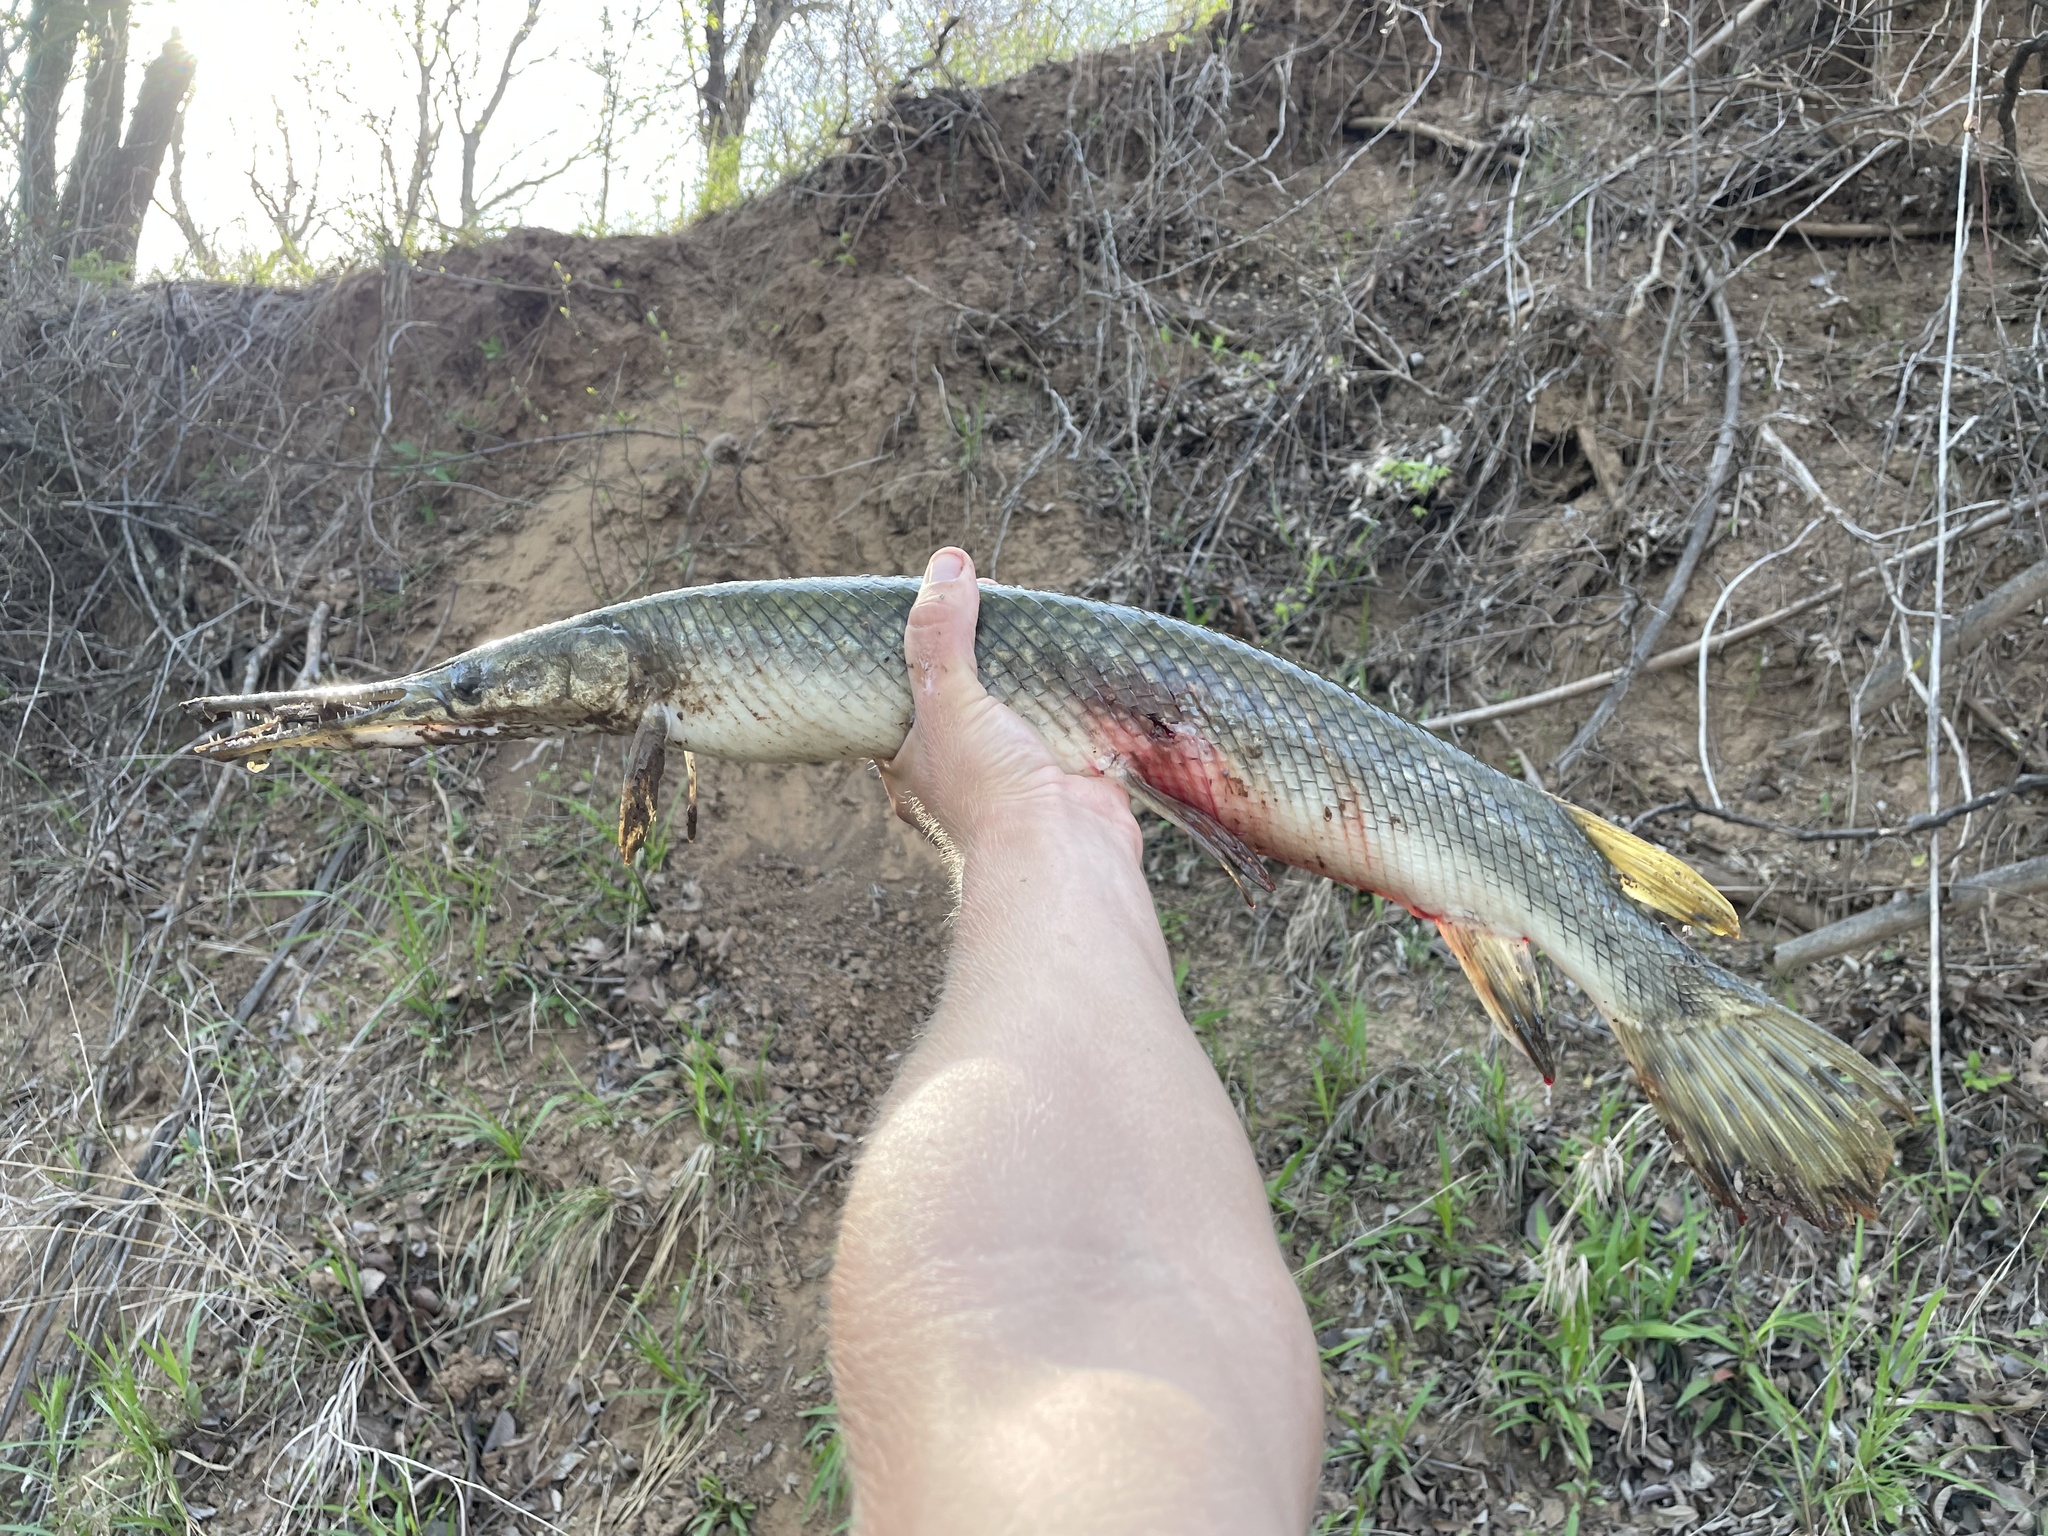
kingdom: Animalia
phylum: Chordata
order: Lepisosteiformes
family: Lepisosteidae
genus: Lepisosteus
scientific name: Lepisosteus oculatus
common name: Spotted gar
